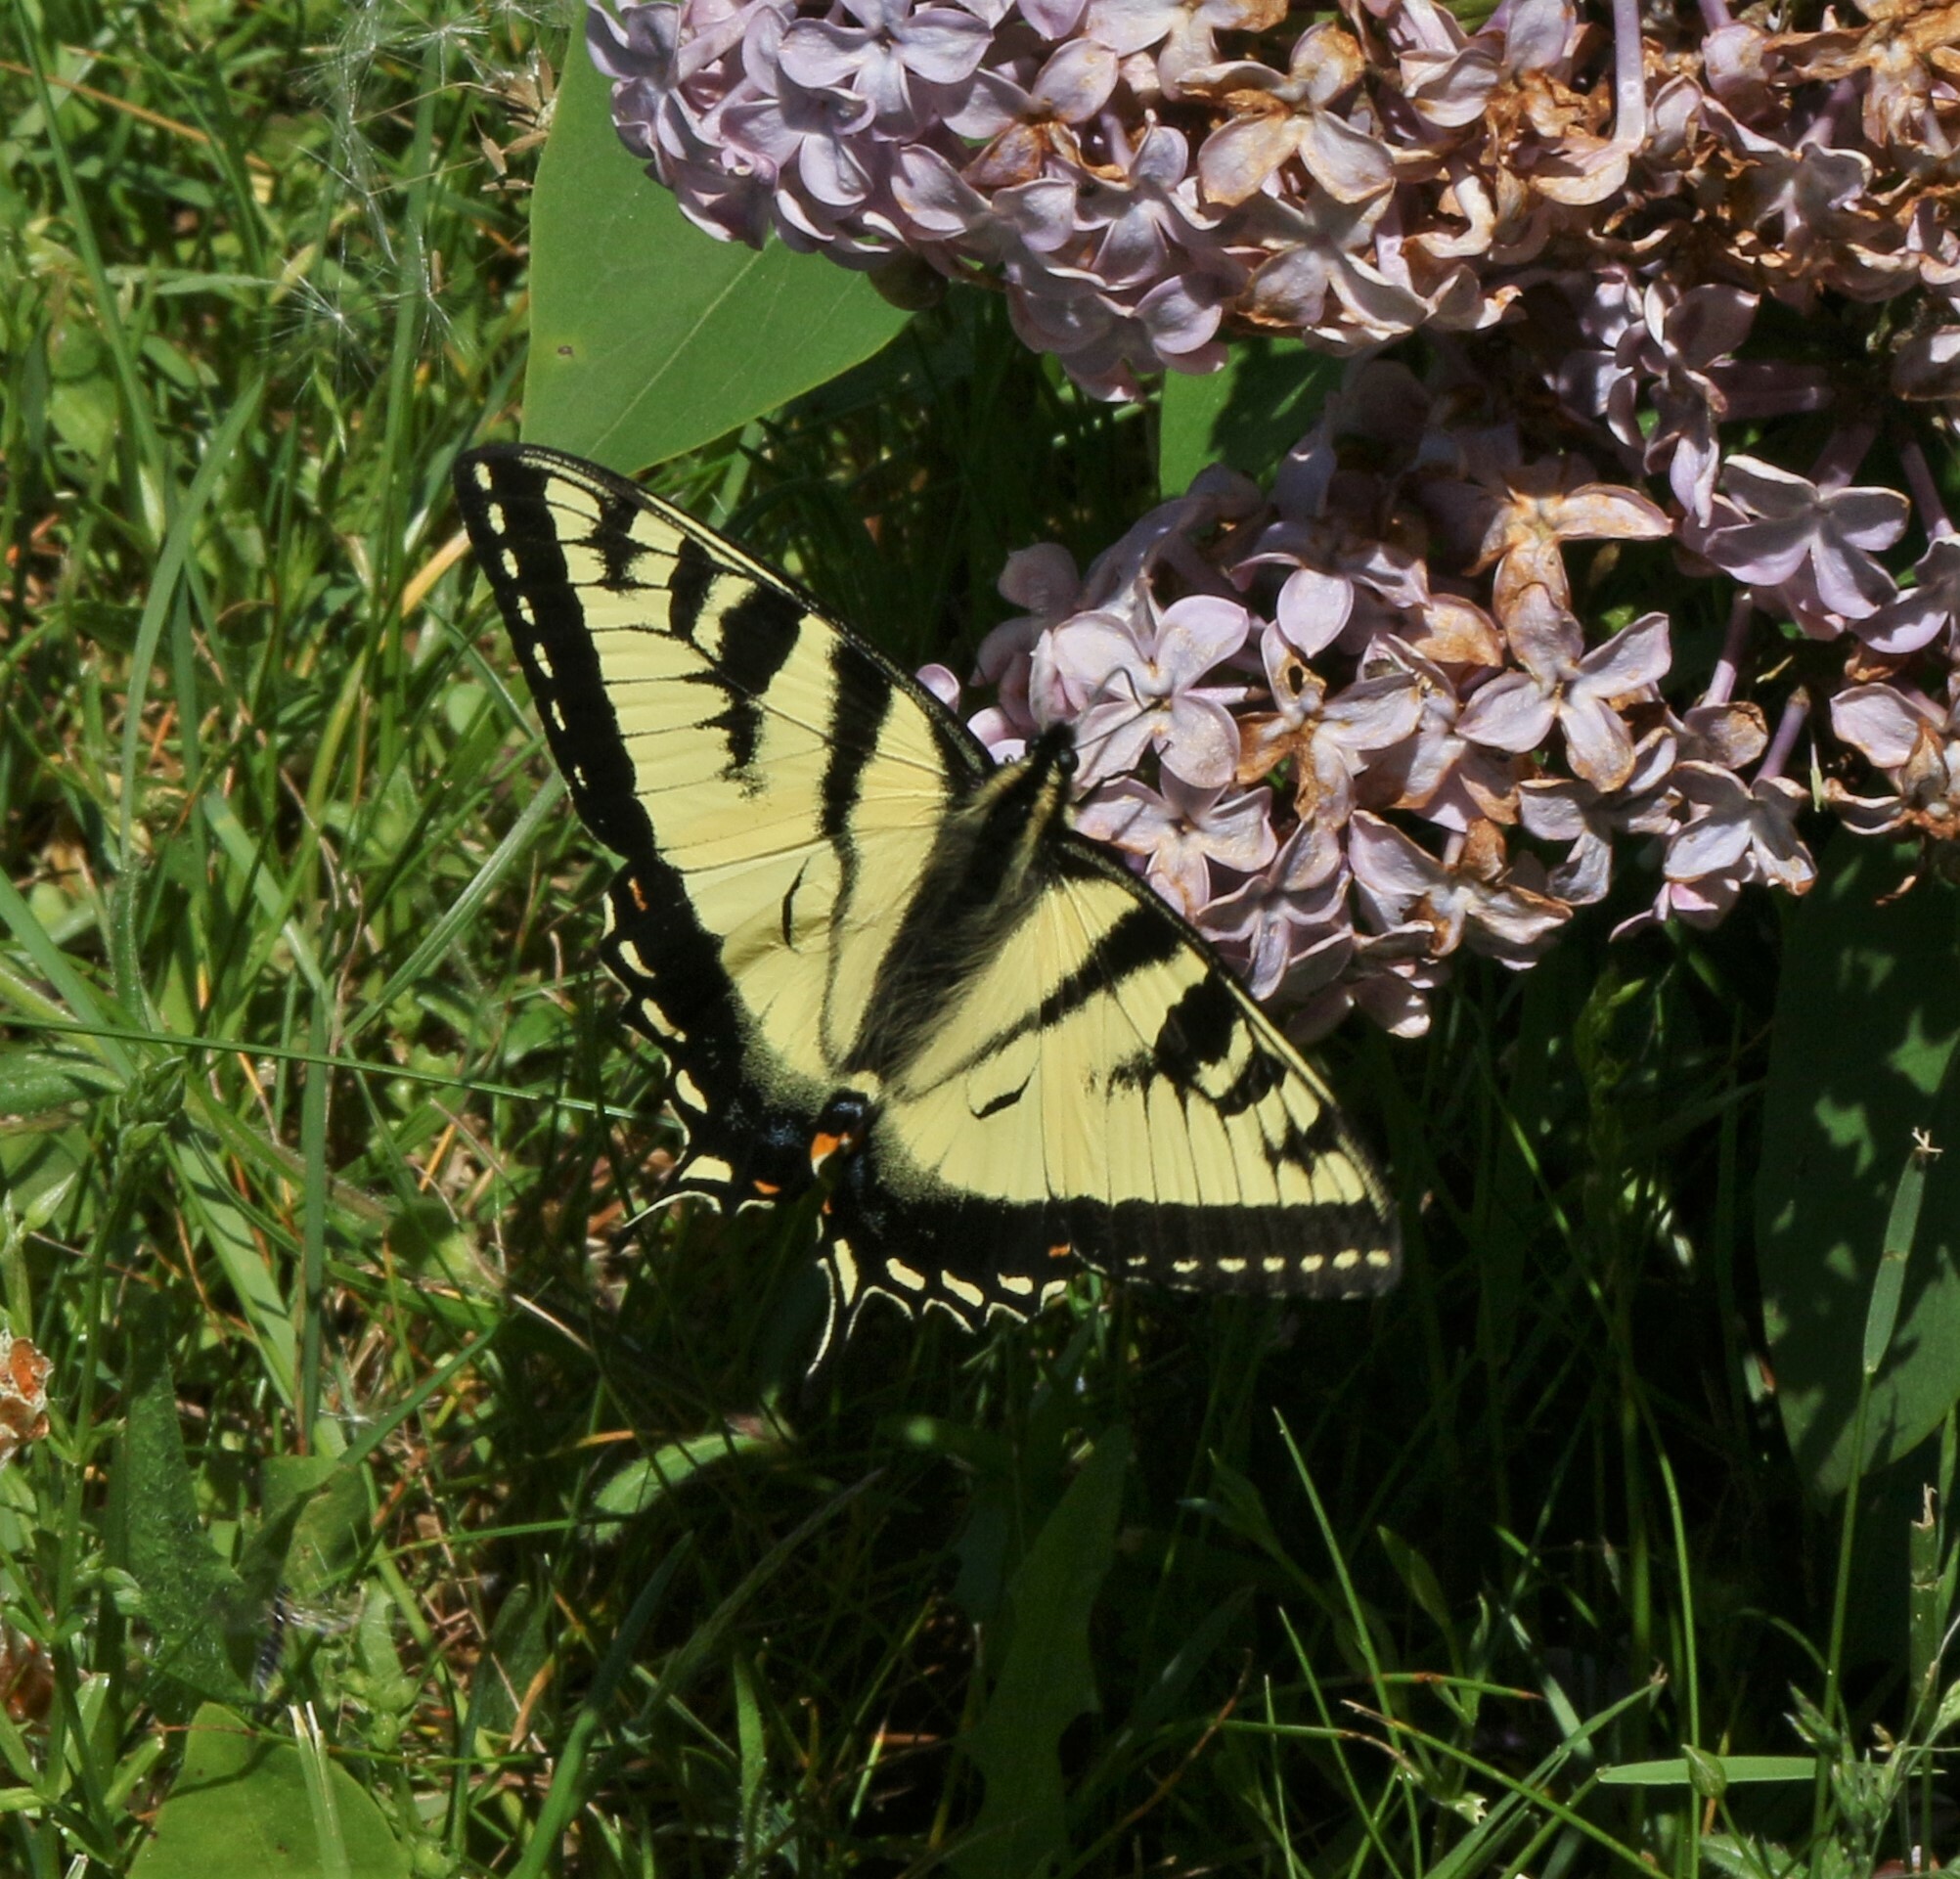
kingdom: Animalia
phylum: Arthropoda
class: Insecta
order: Lepidoptera
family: Papilionidae
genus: Papilio
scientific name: Papilio canadensis
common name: Canadian tiger swallowtail
